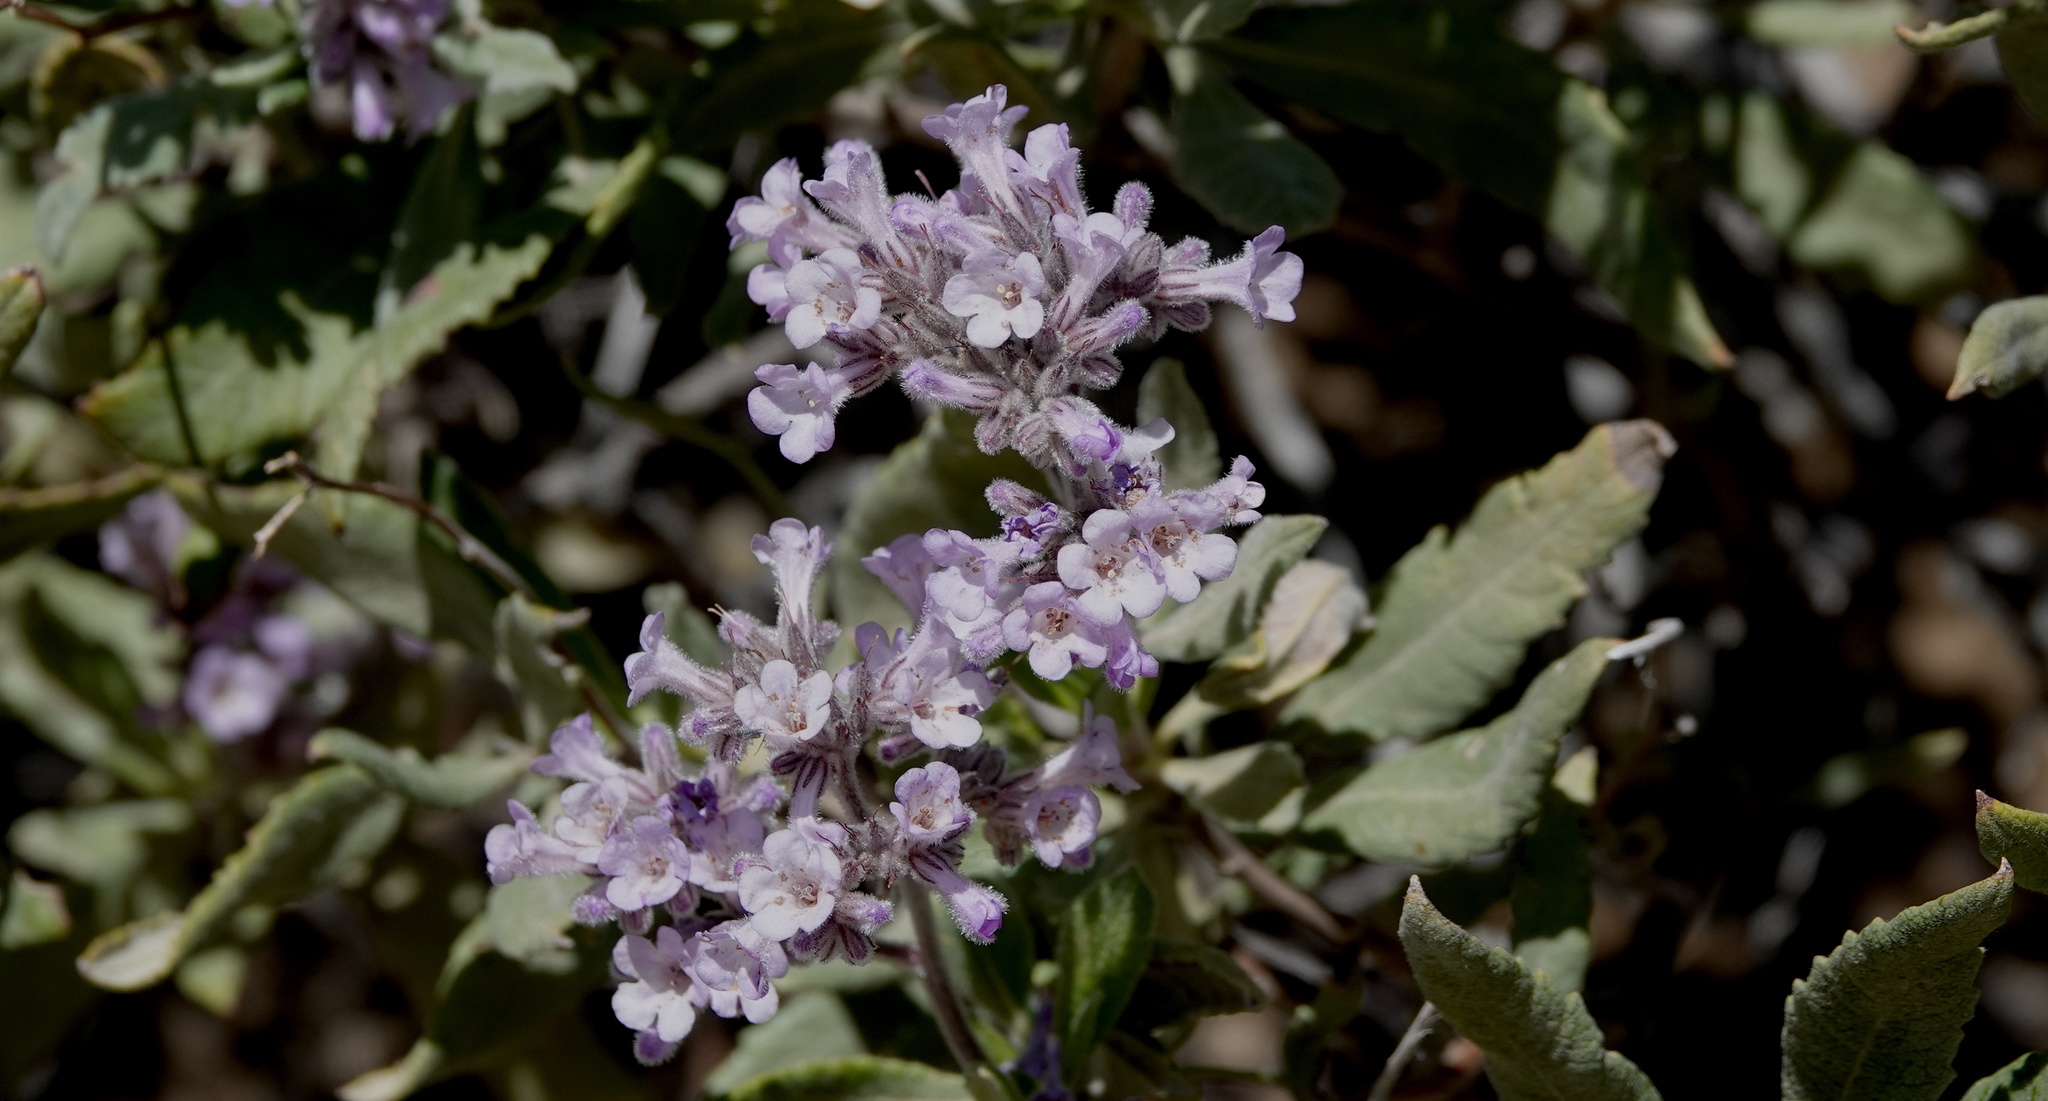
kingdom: Plantae
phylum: Tracheophyta
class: Magnoliopsida
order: Boraginales
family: Namaceae
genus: Eriodictyon
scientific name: Eriodictyon crassifolium
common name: Thick-leaf yerba-santa
